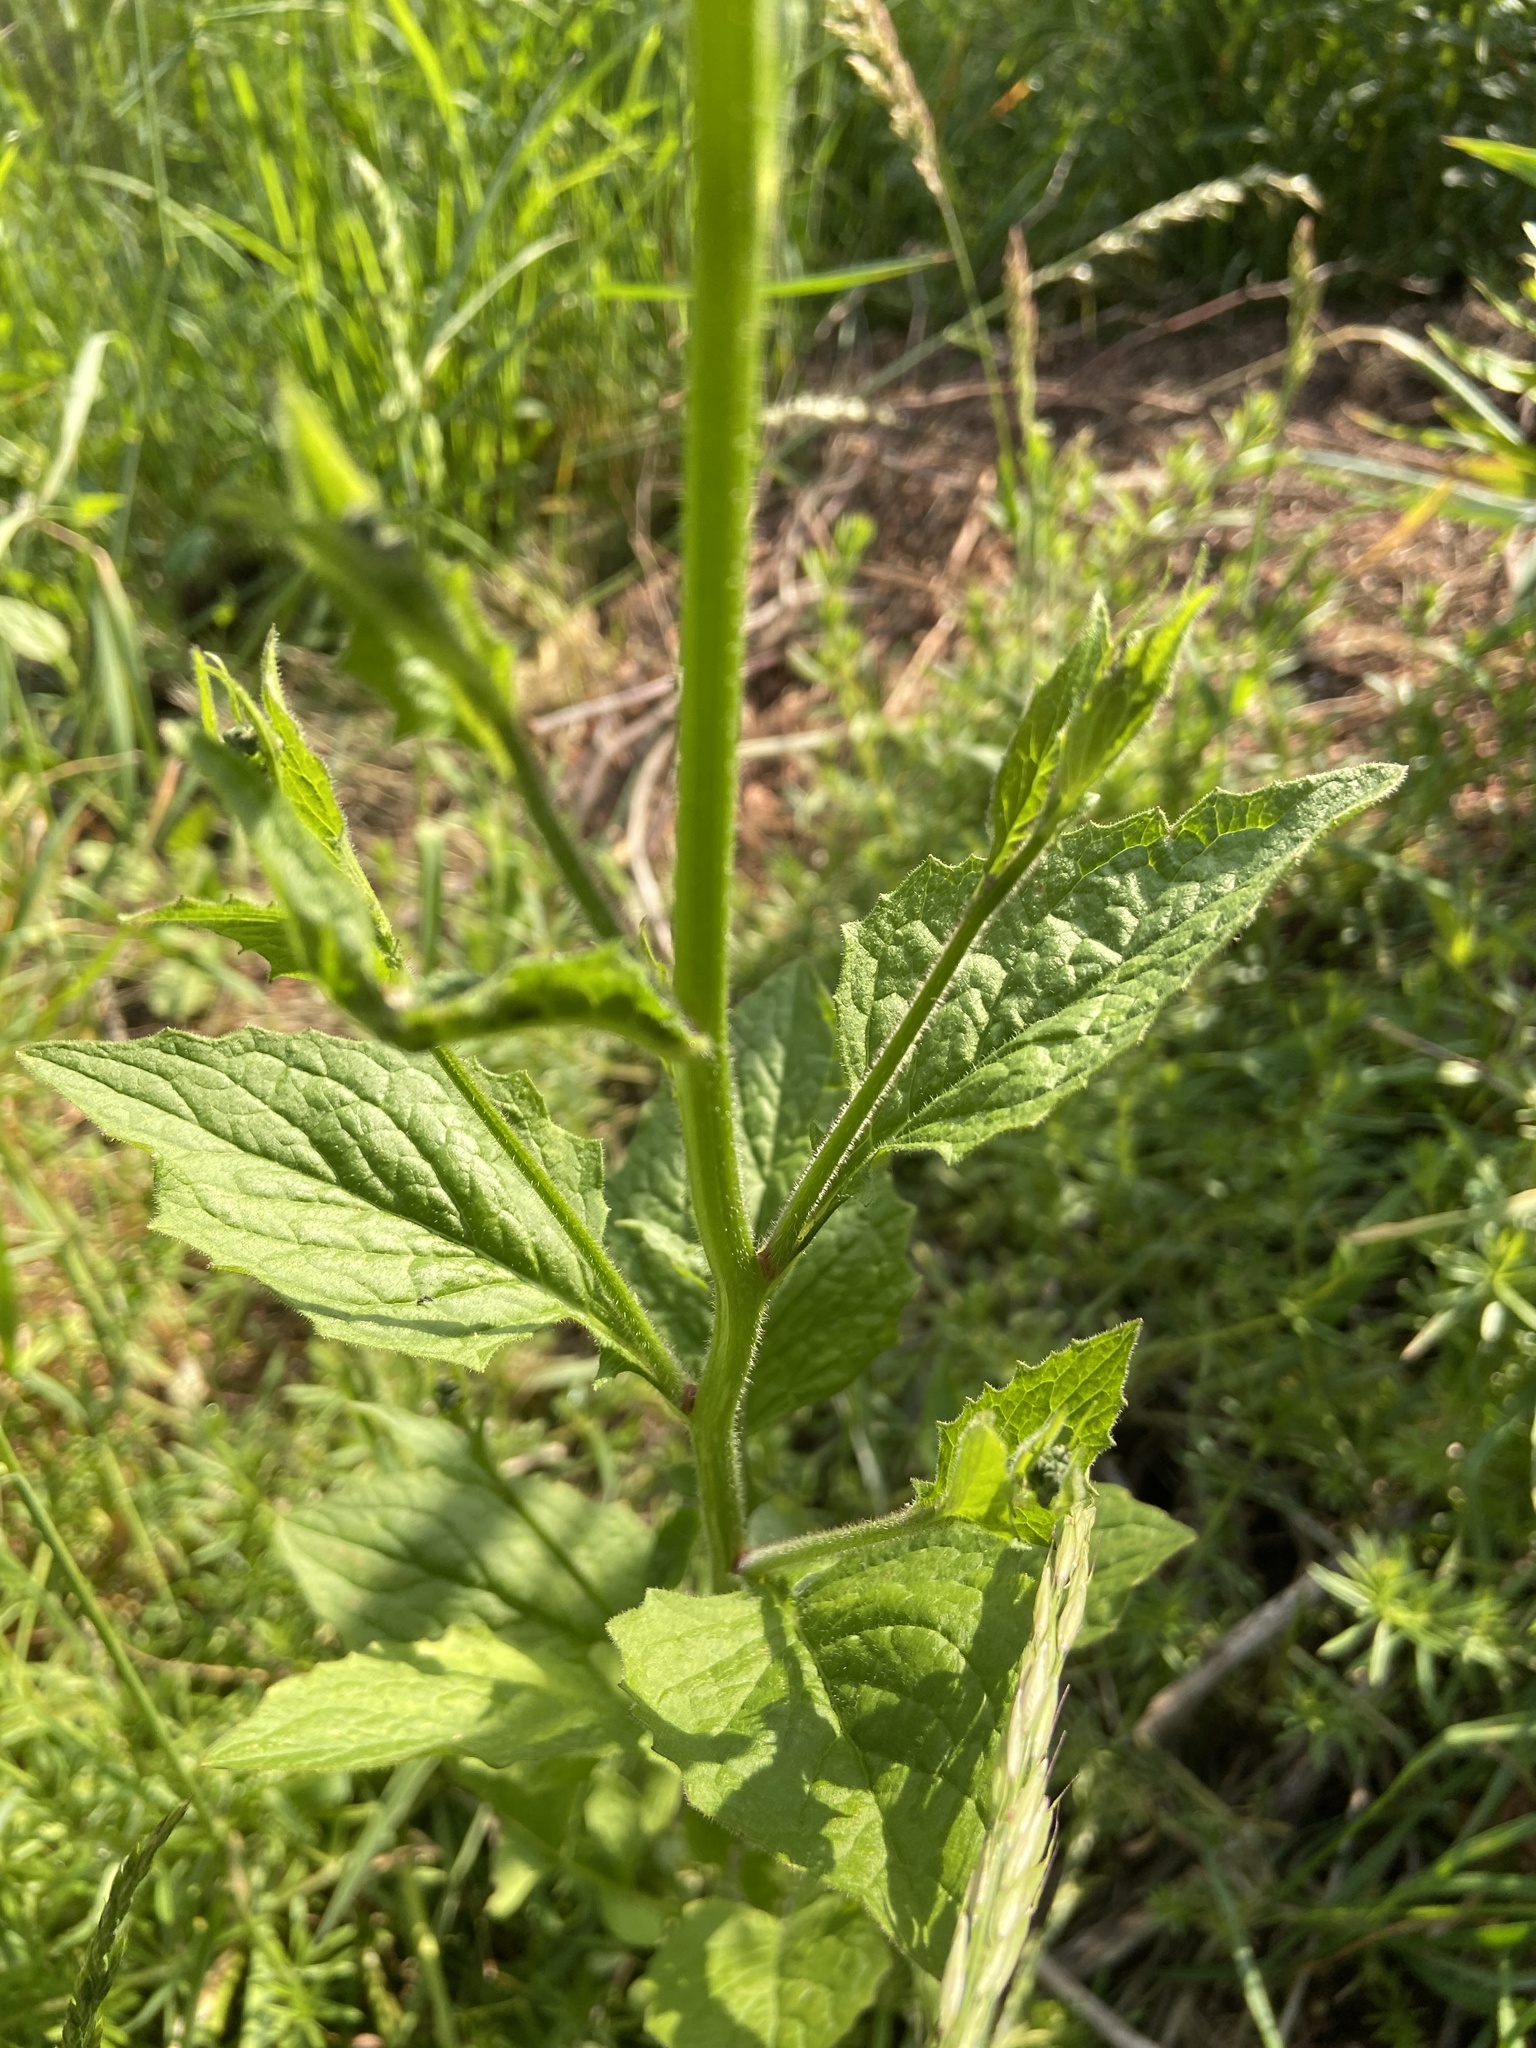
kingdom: Plantae
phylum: Tracheophyta
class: Magnoliopsida
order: Asterales
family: Asteraceae
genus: Lapsana
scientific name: Lapsana communis
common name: Nipplewort
